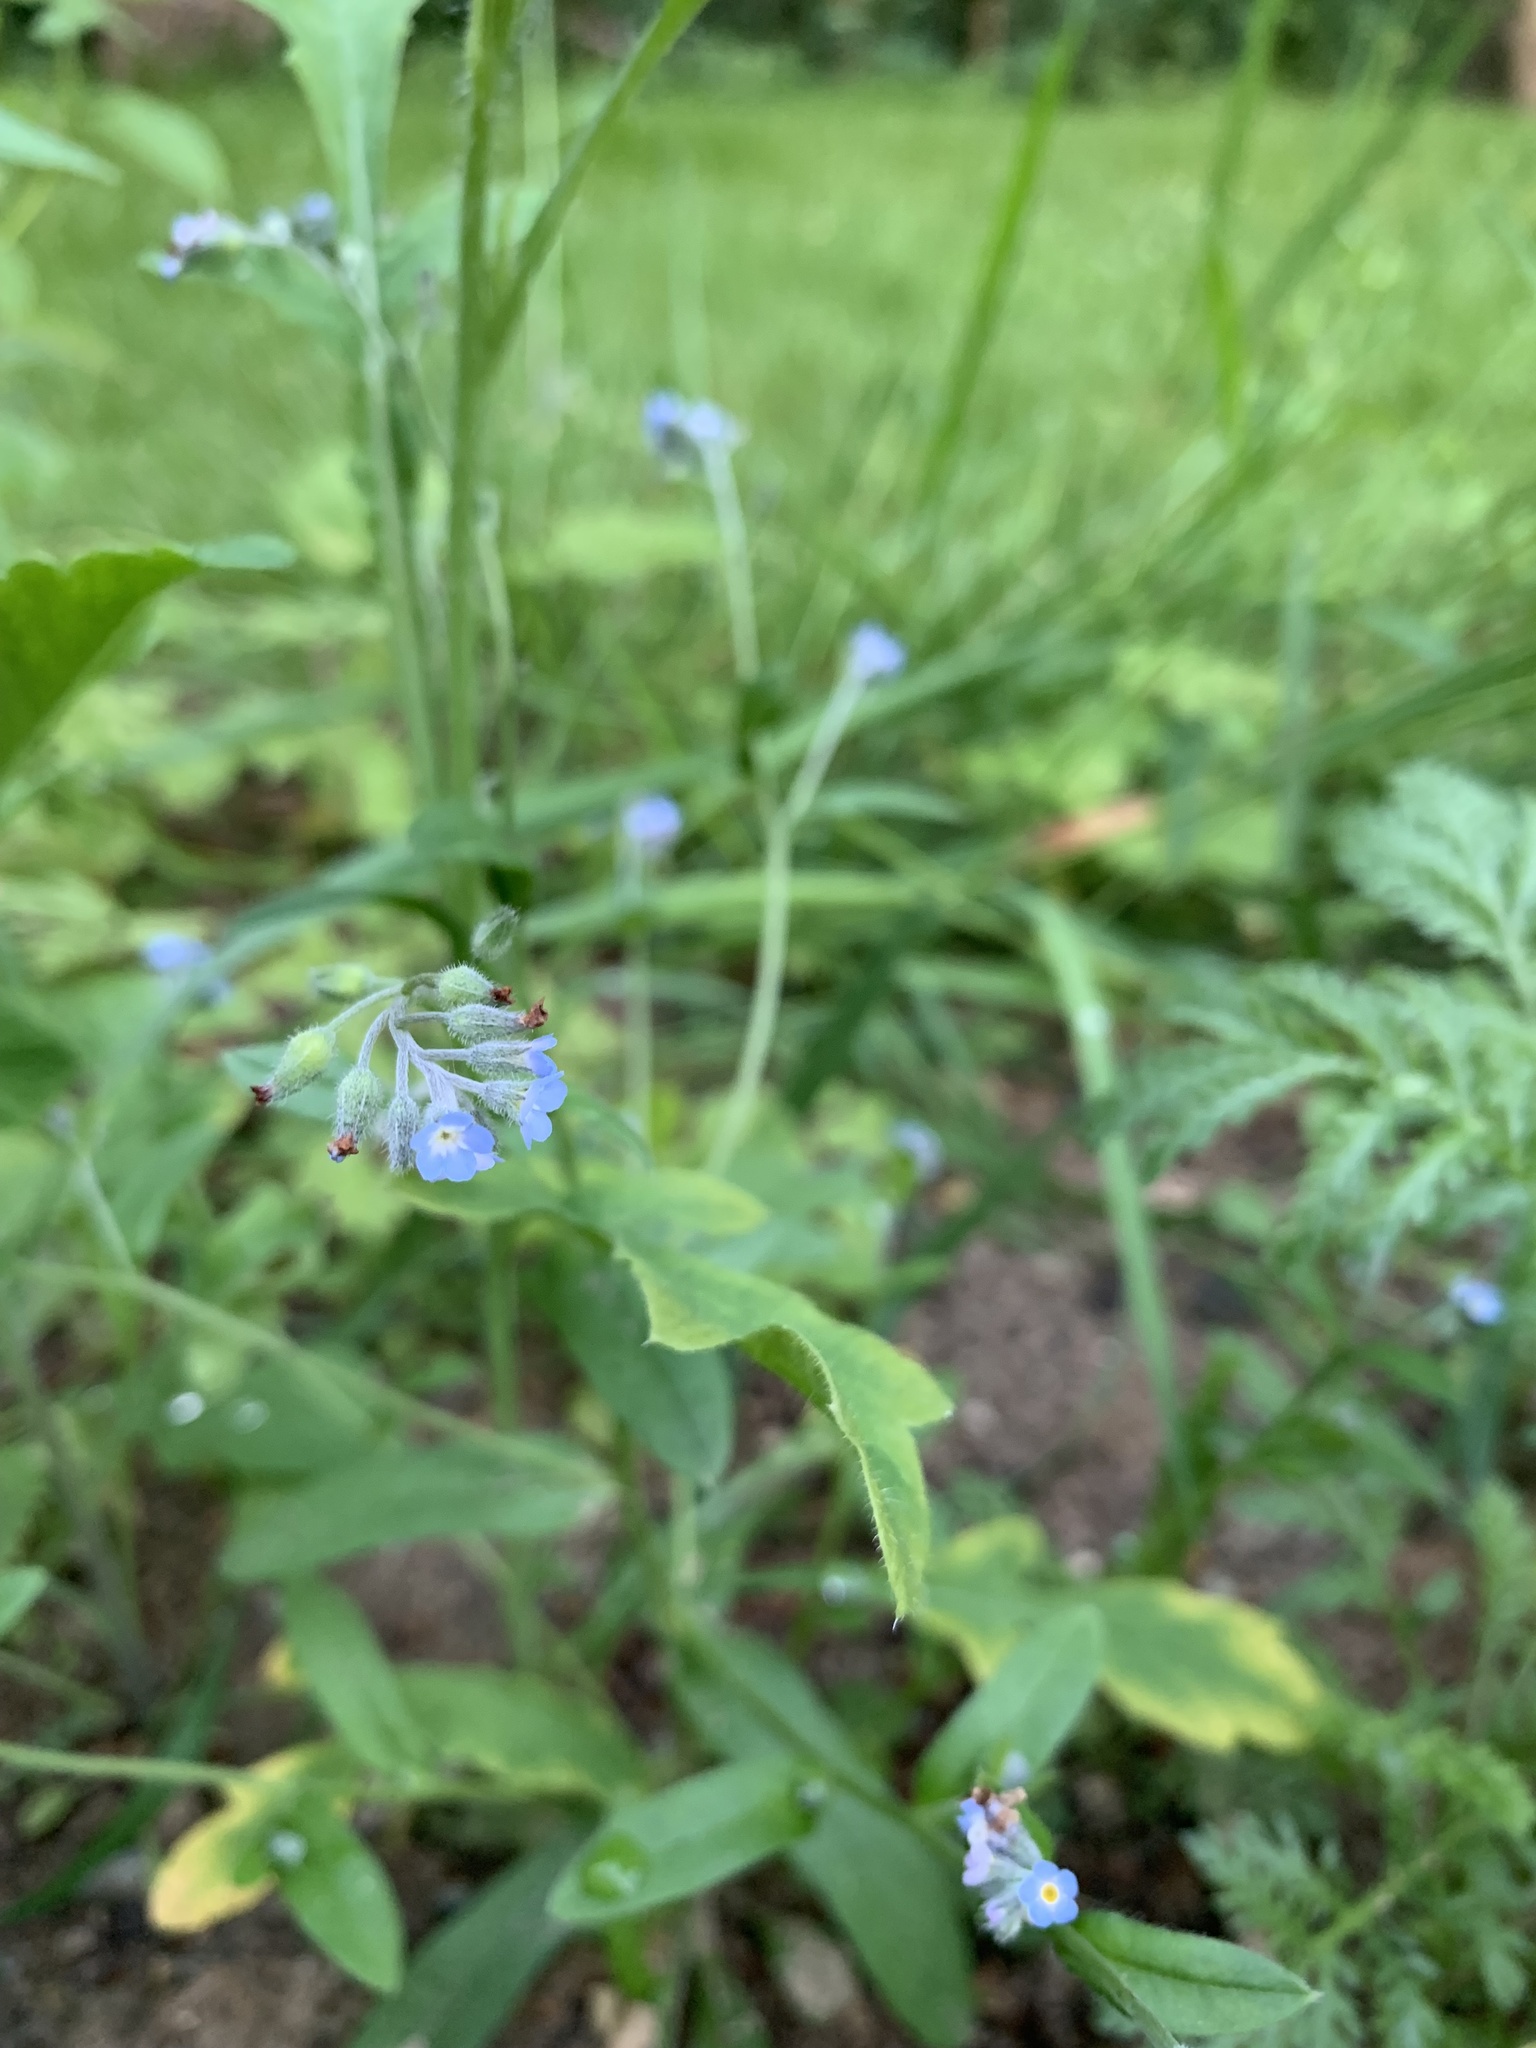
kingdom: Plantae
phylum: Tracheophyta
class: Magnoliopsida
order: Boraginales
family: Boraginaceae
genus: Myosotis
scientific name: Myosotis arvensis
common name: Field forget-me-not
